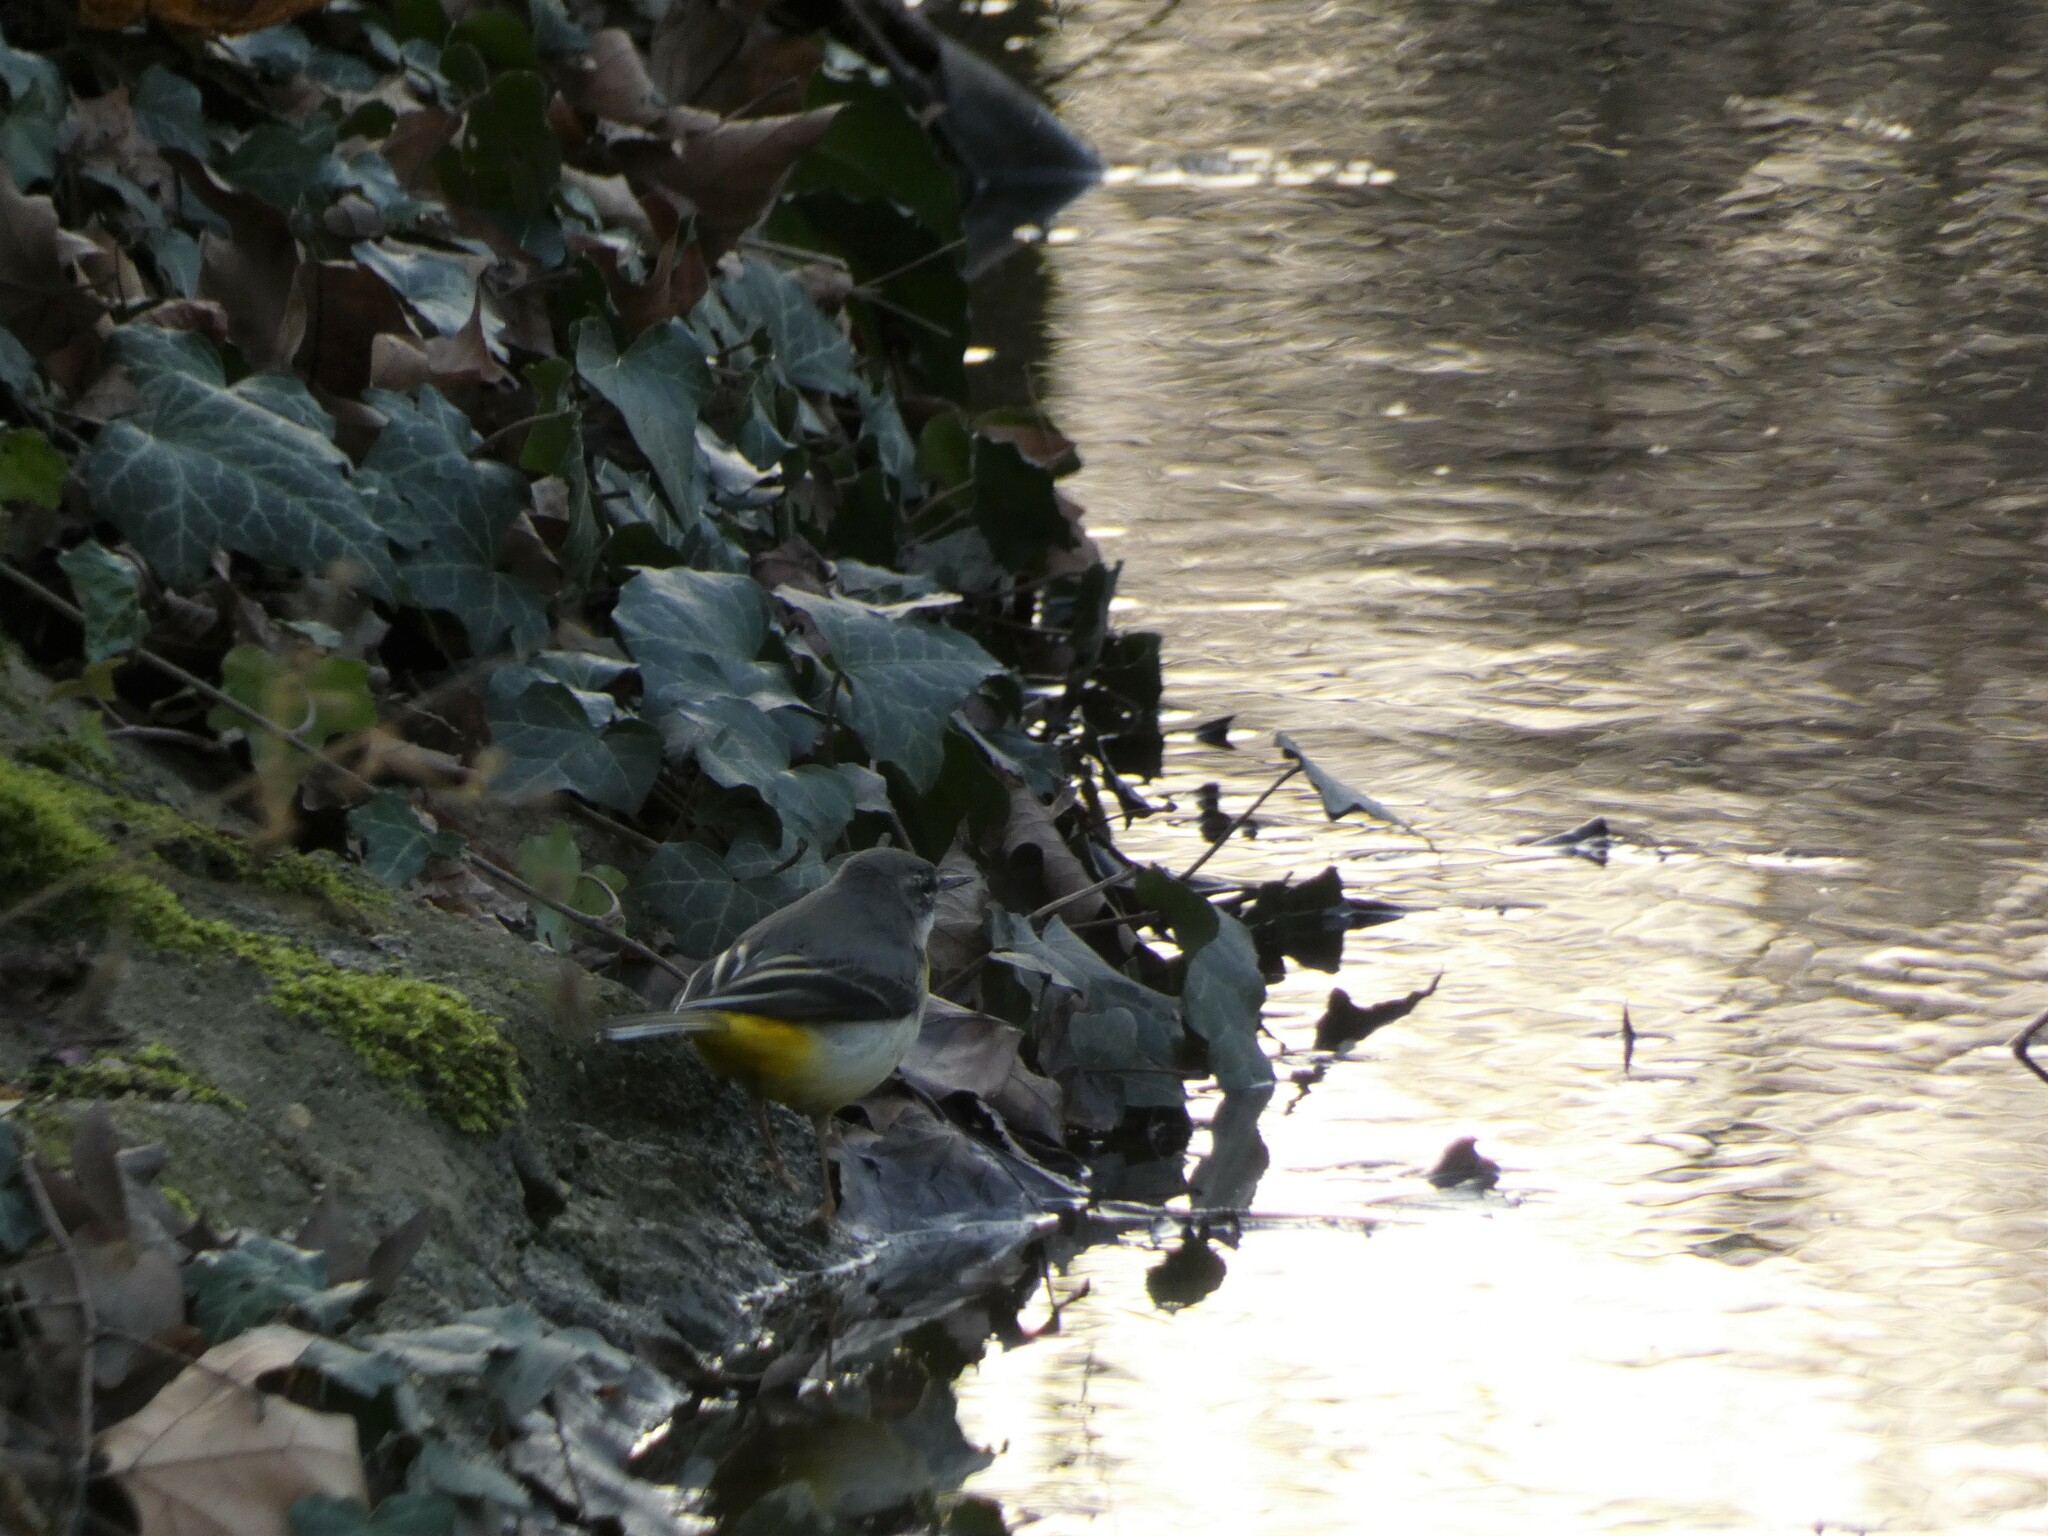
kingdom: Animalia
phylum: Chordata
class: Aves
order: Passeriformes
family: Motacillidae
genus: Motacilla
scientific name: Motacilla cinerea
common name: Grey wagtail
